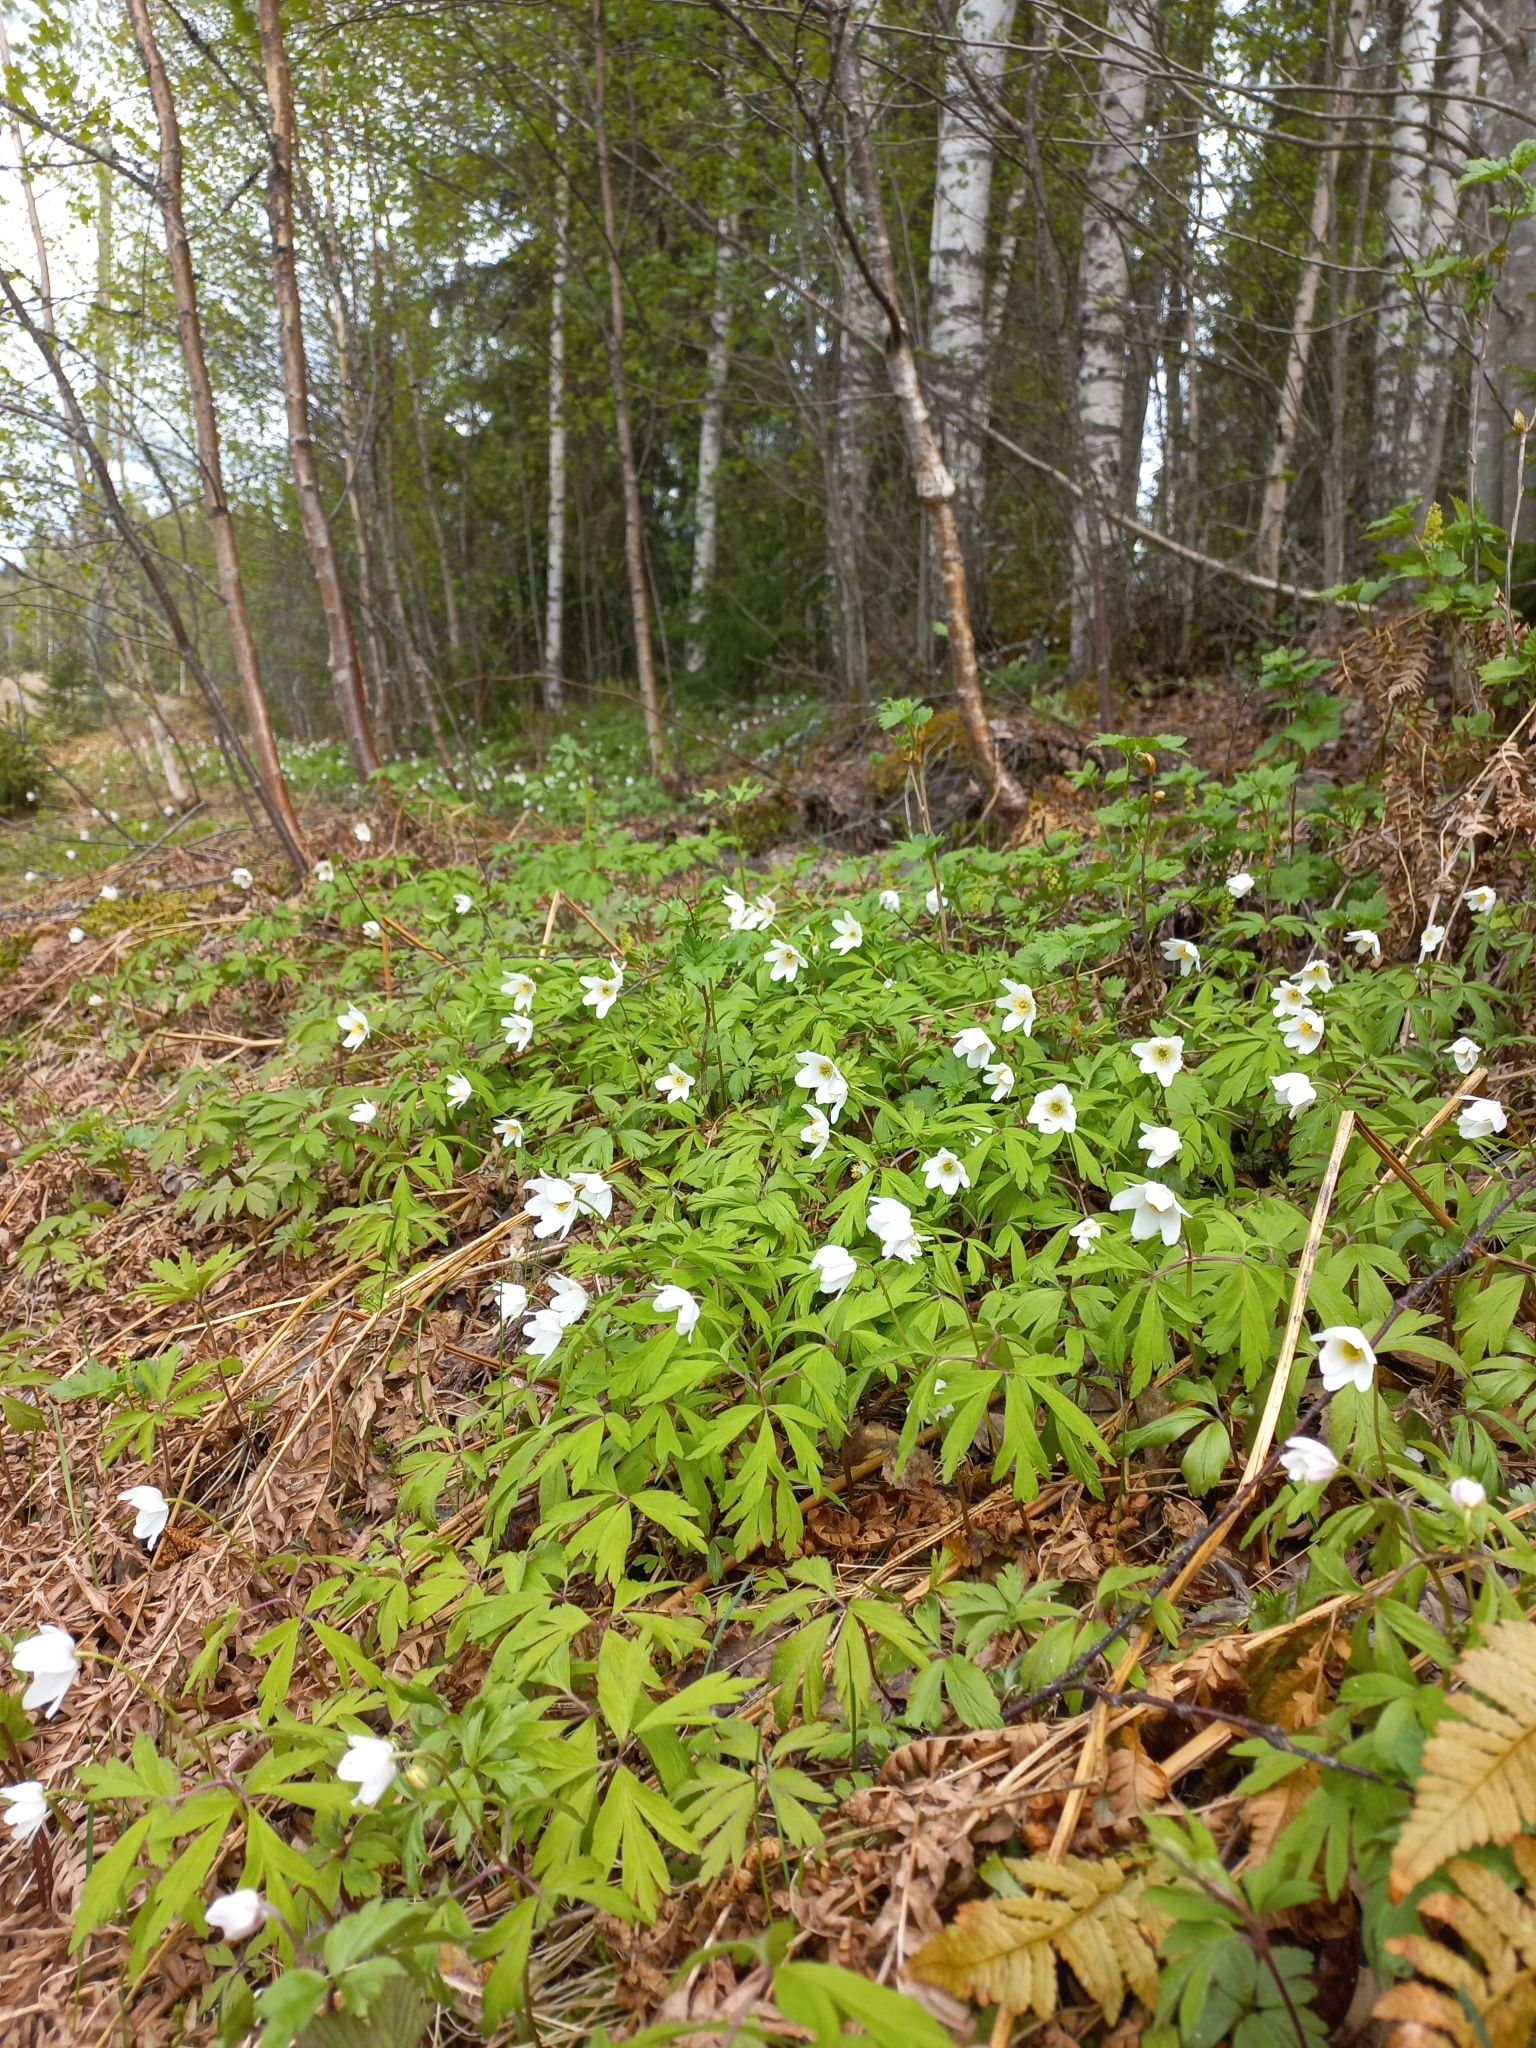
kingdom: Plantae
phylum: Tracheophyta
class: Magnoliopsida
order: Ranunculales
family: Ranunculaceae
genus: Anemone
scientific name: Anemone nemorosa
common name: Wood anemone
